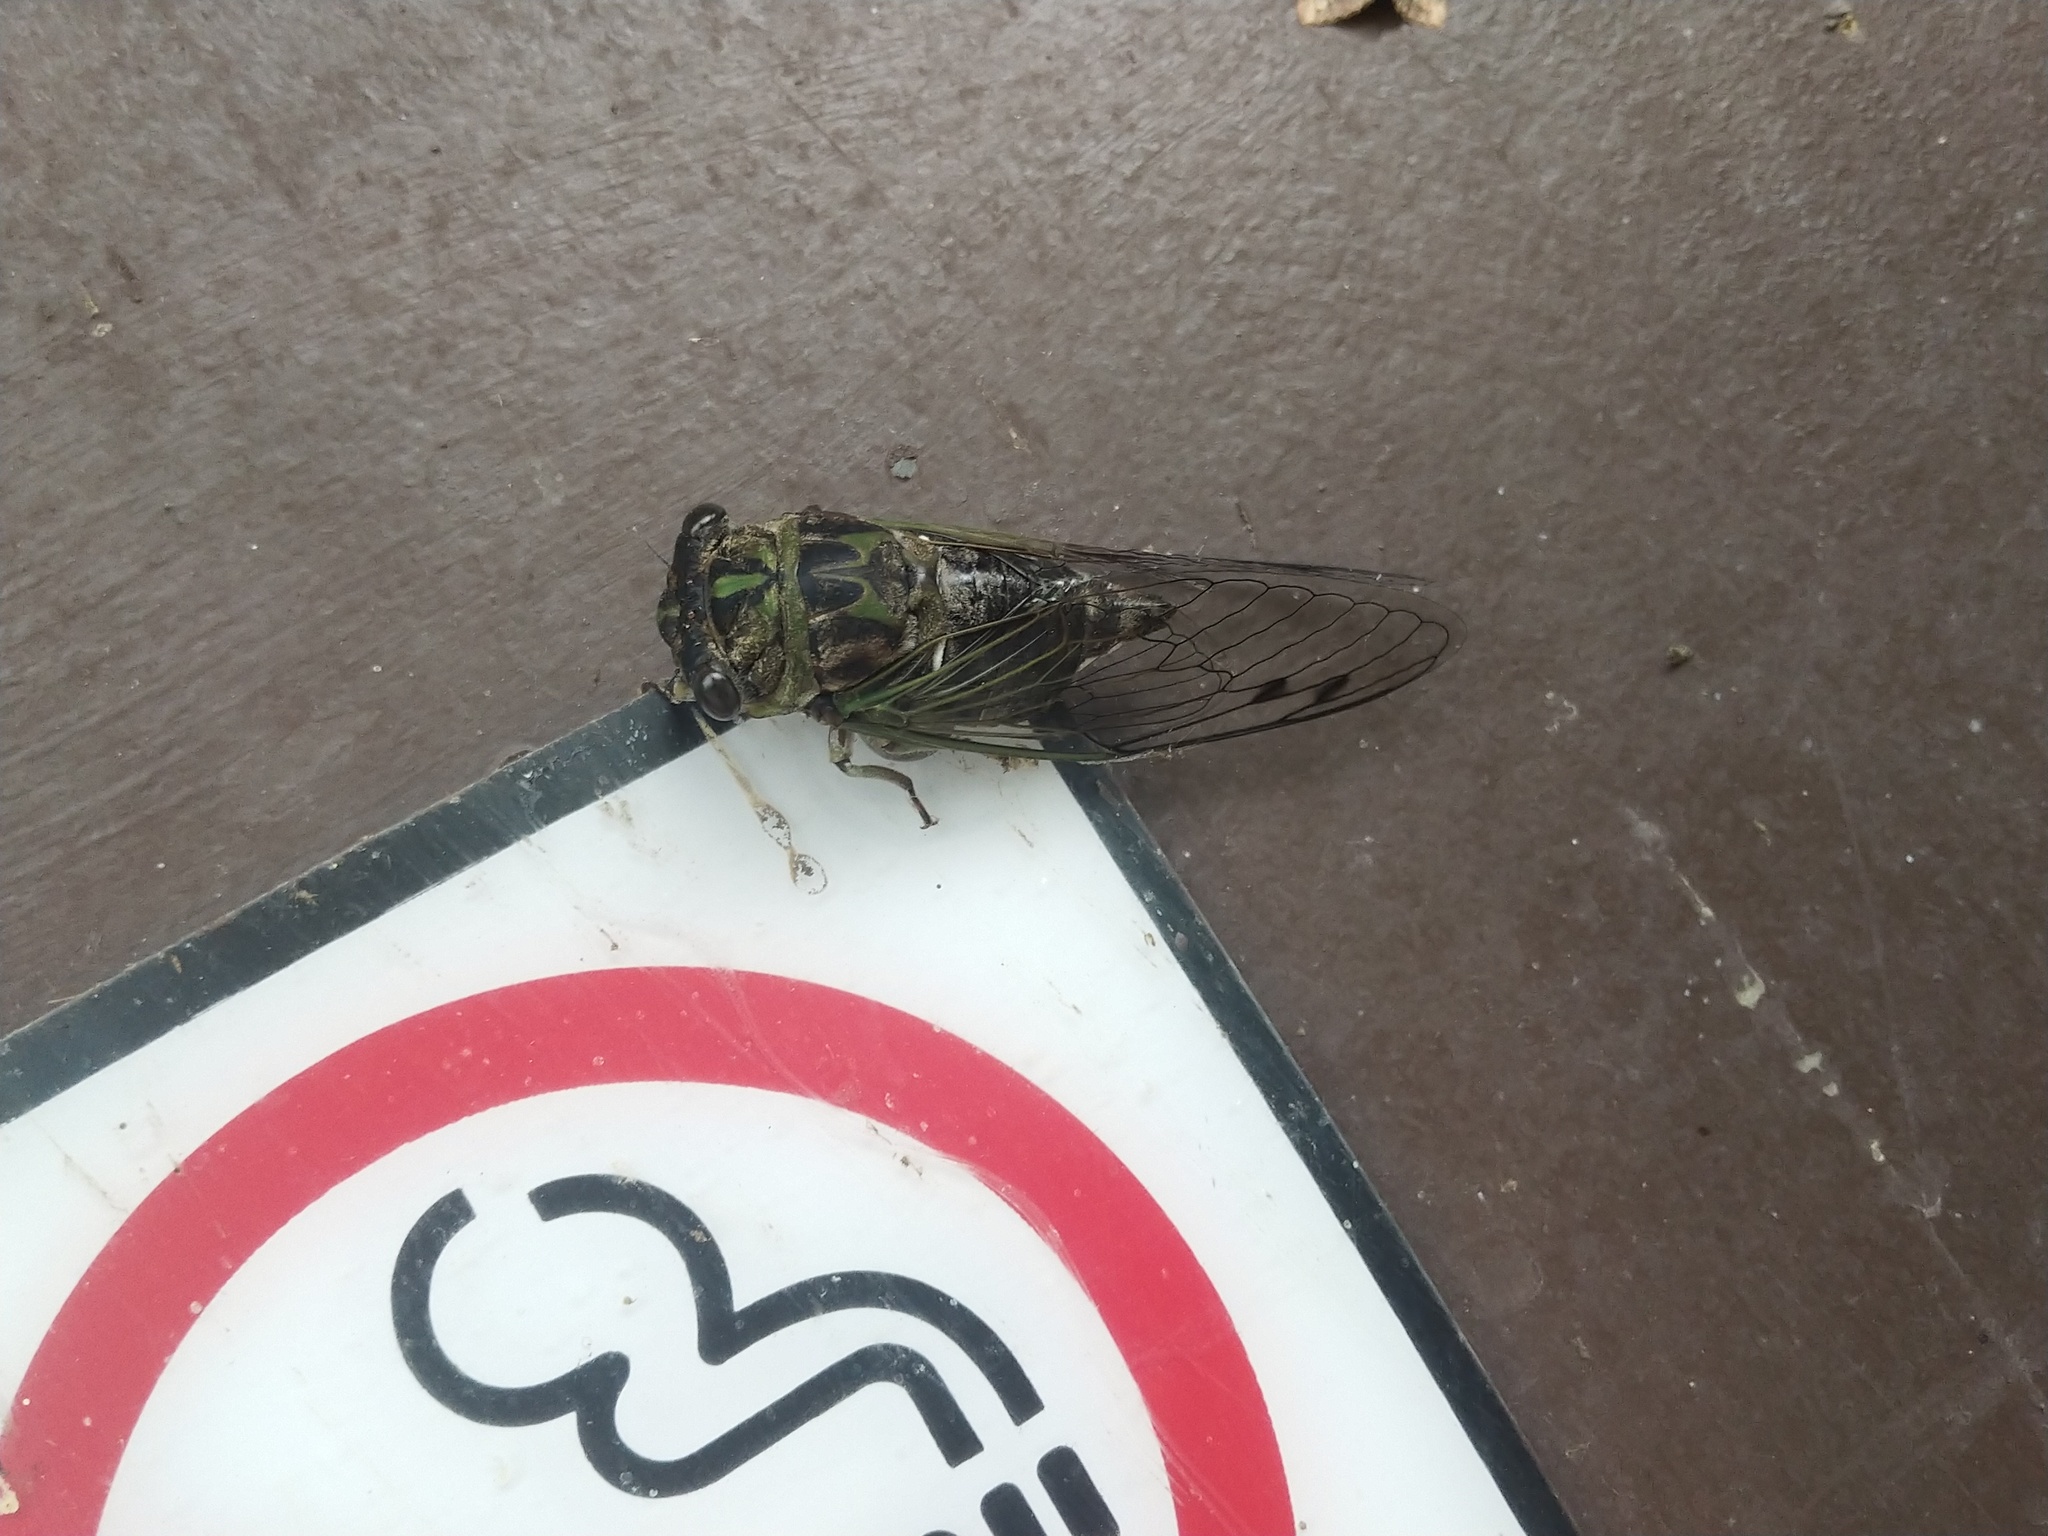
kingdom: Animalia
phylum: Arthropoda
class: Insecta
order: Hemiptera
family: Cicadidae
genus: Neotibicen
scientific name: Neotibicen canicularis
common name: God-day cicada
